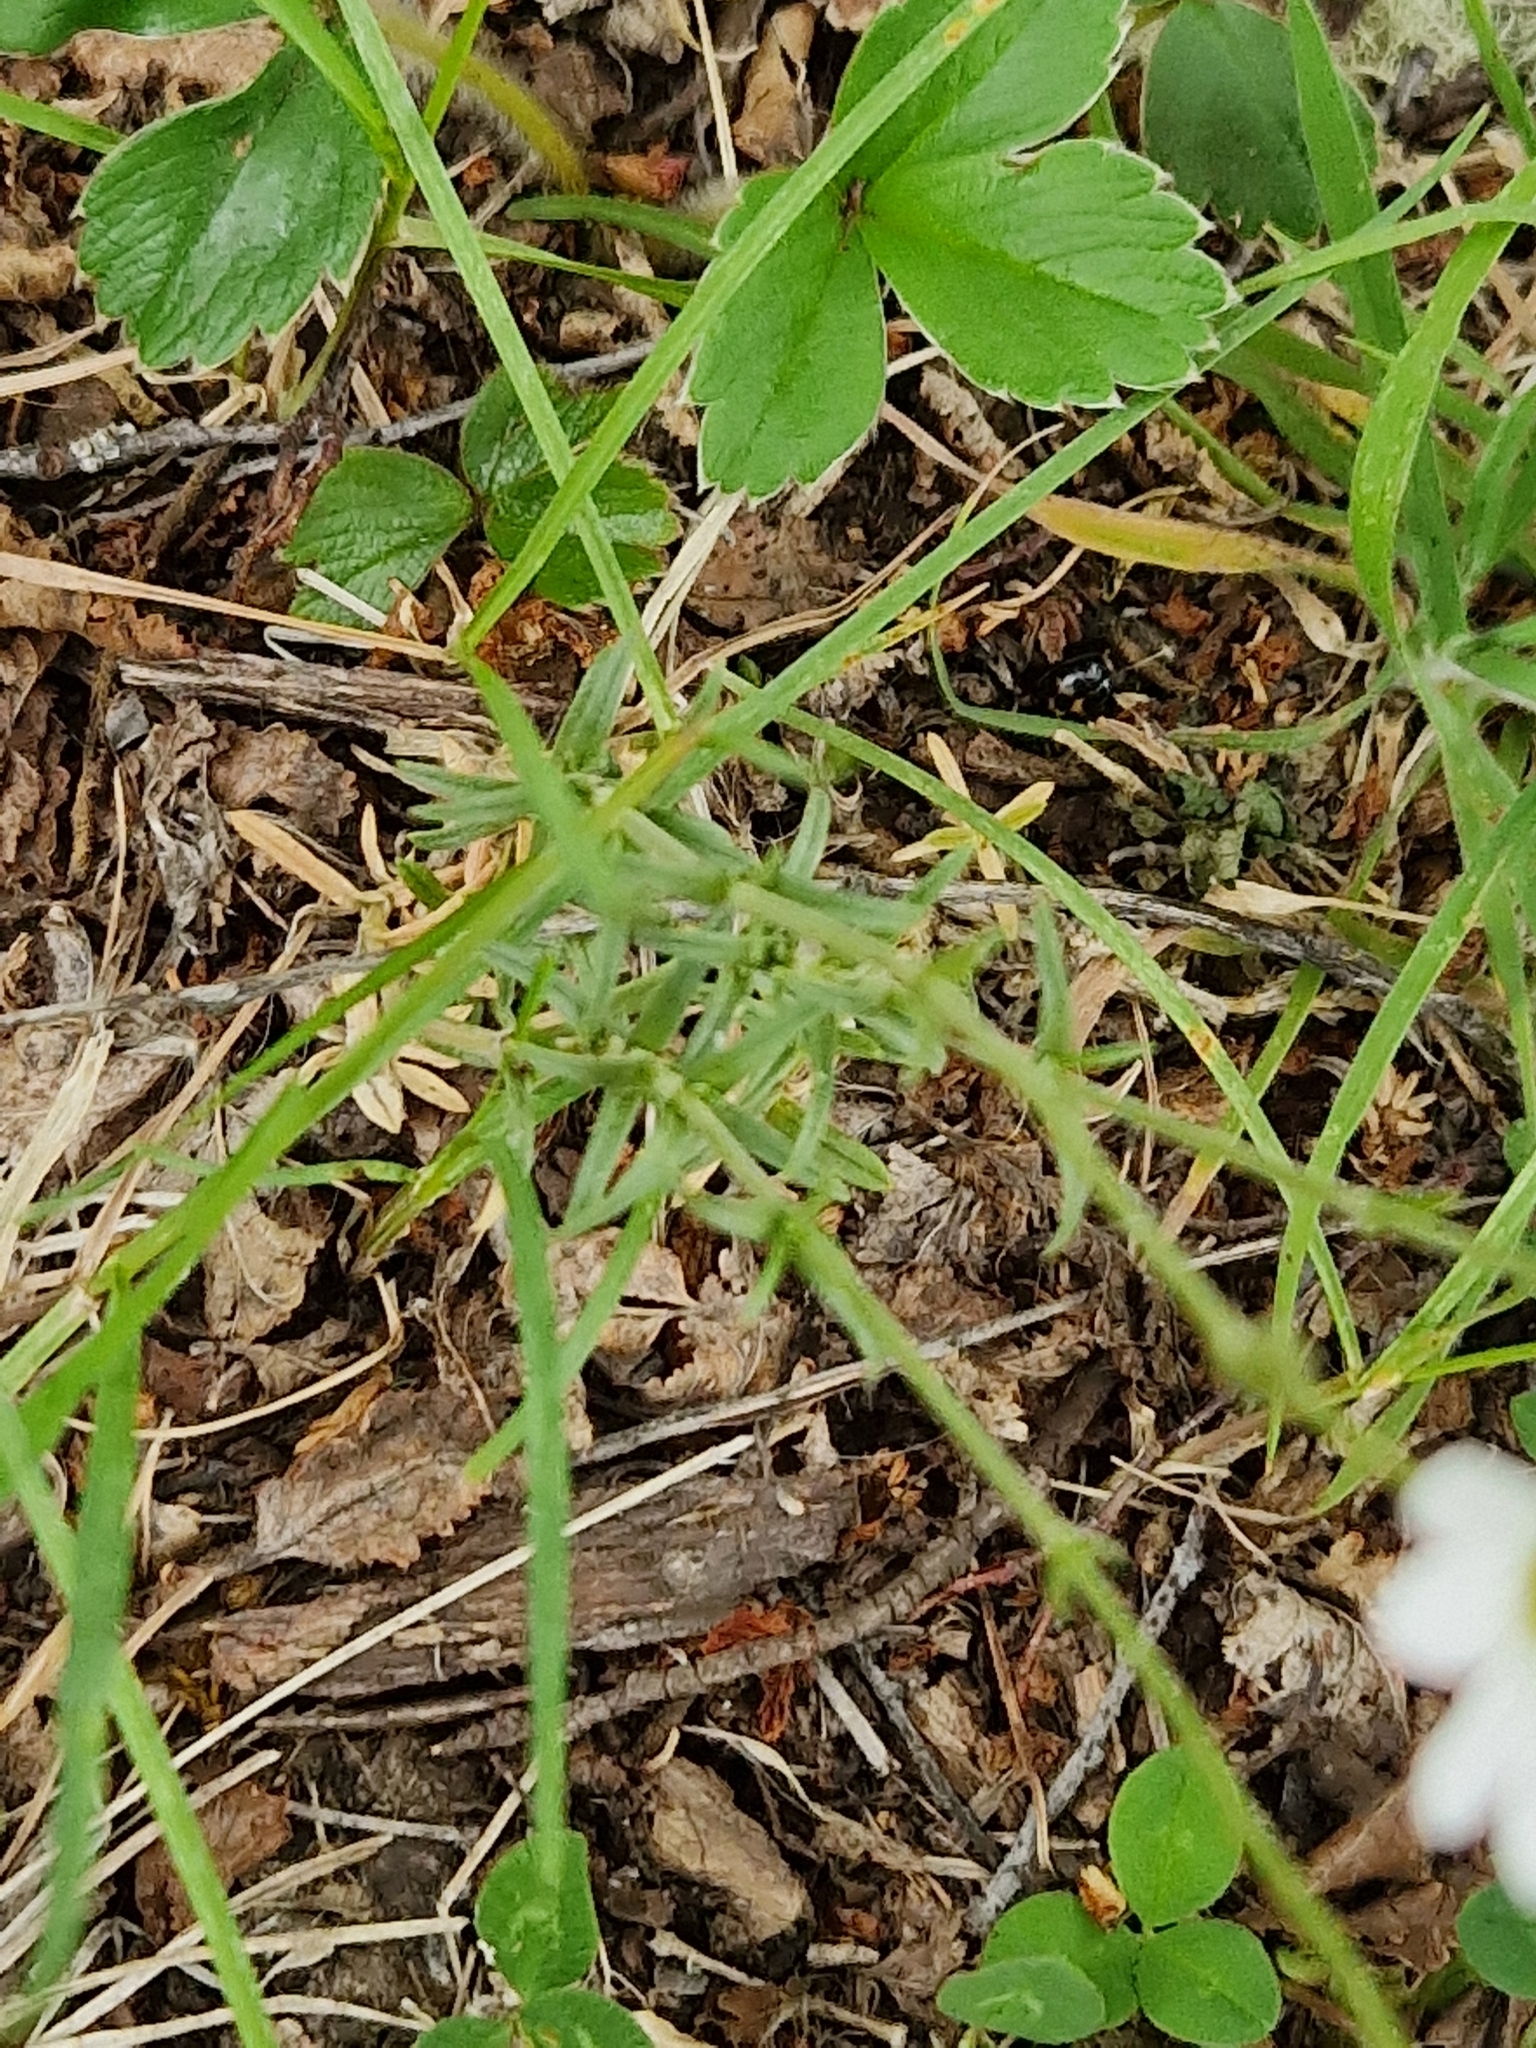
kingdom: Plantae
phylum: Tracheophyta
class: Magnoliopsida
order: Caryophyllales
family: Caryophyllaceae
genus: Cerastium
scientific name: Cerastium arvense
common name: Field mouse-ear
